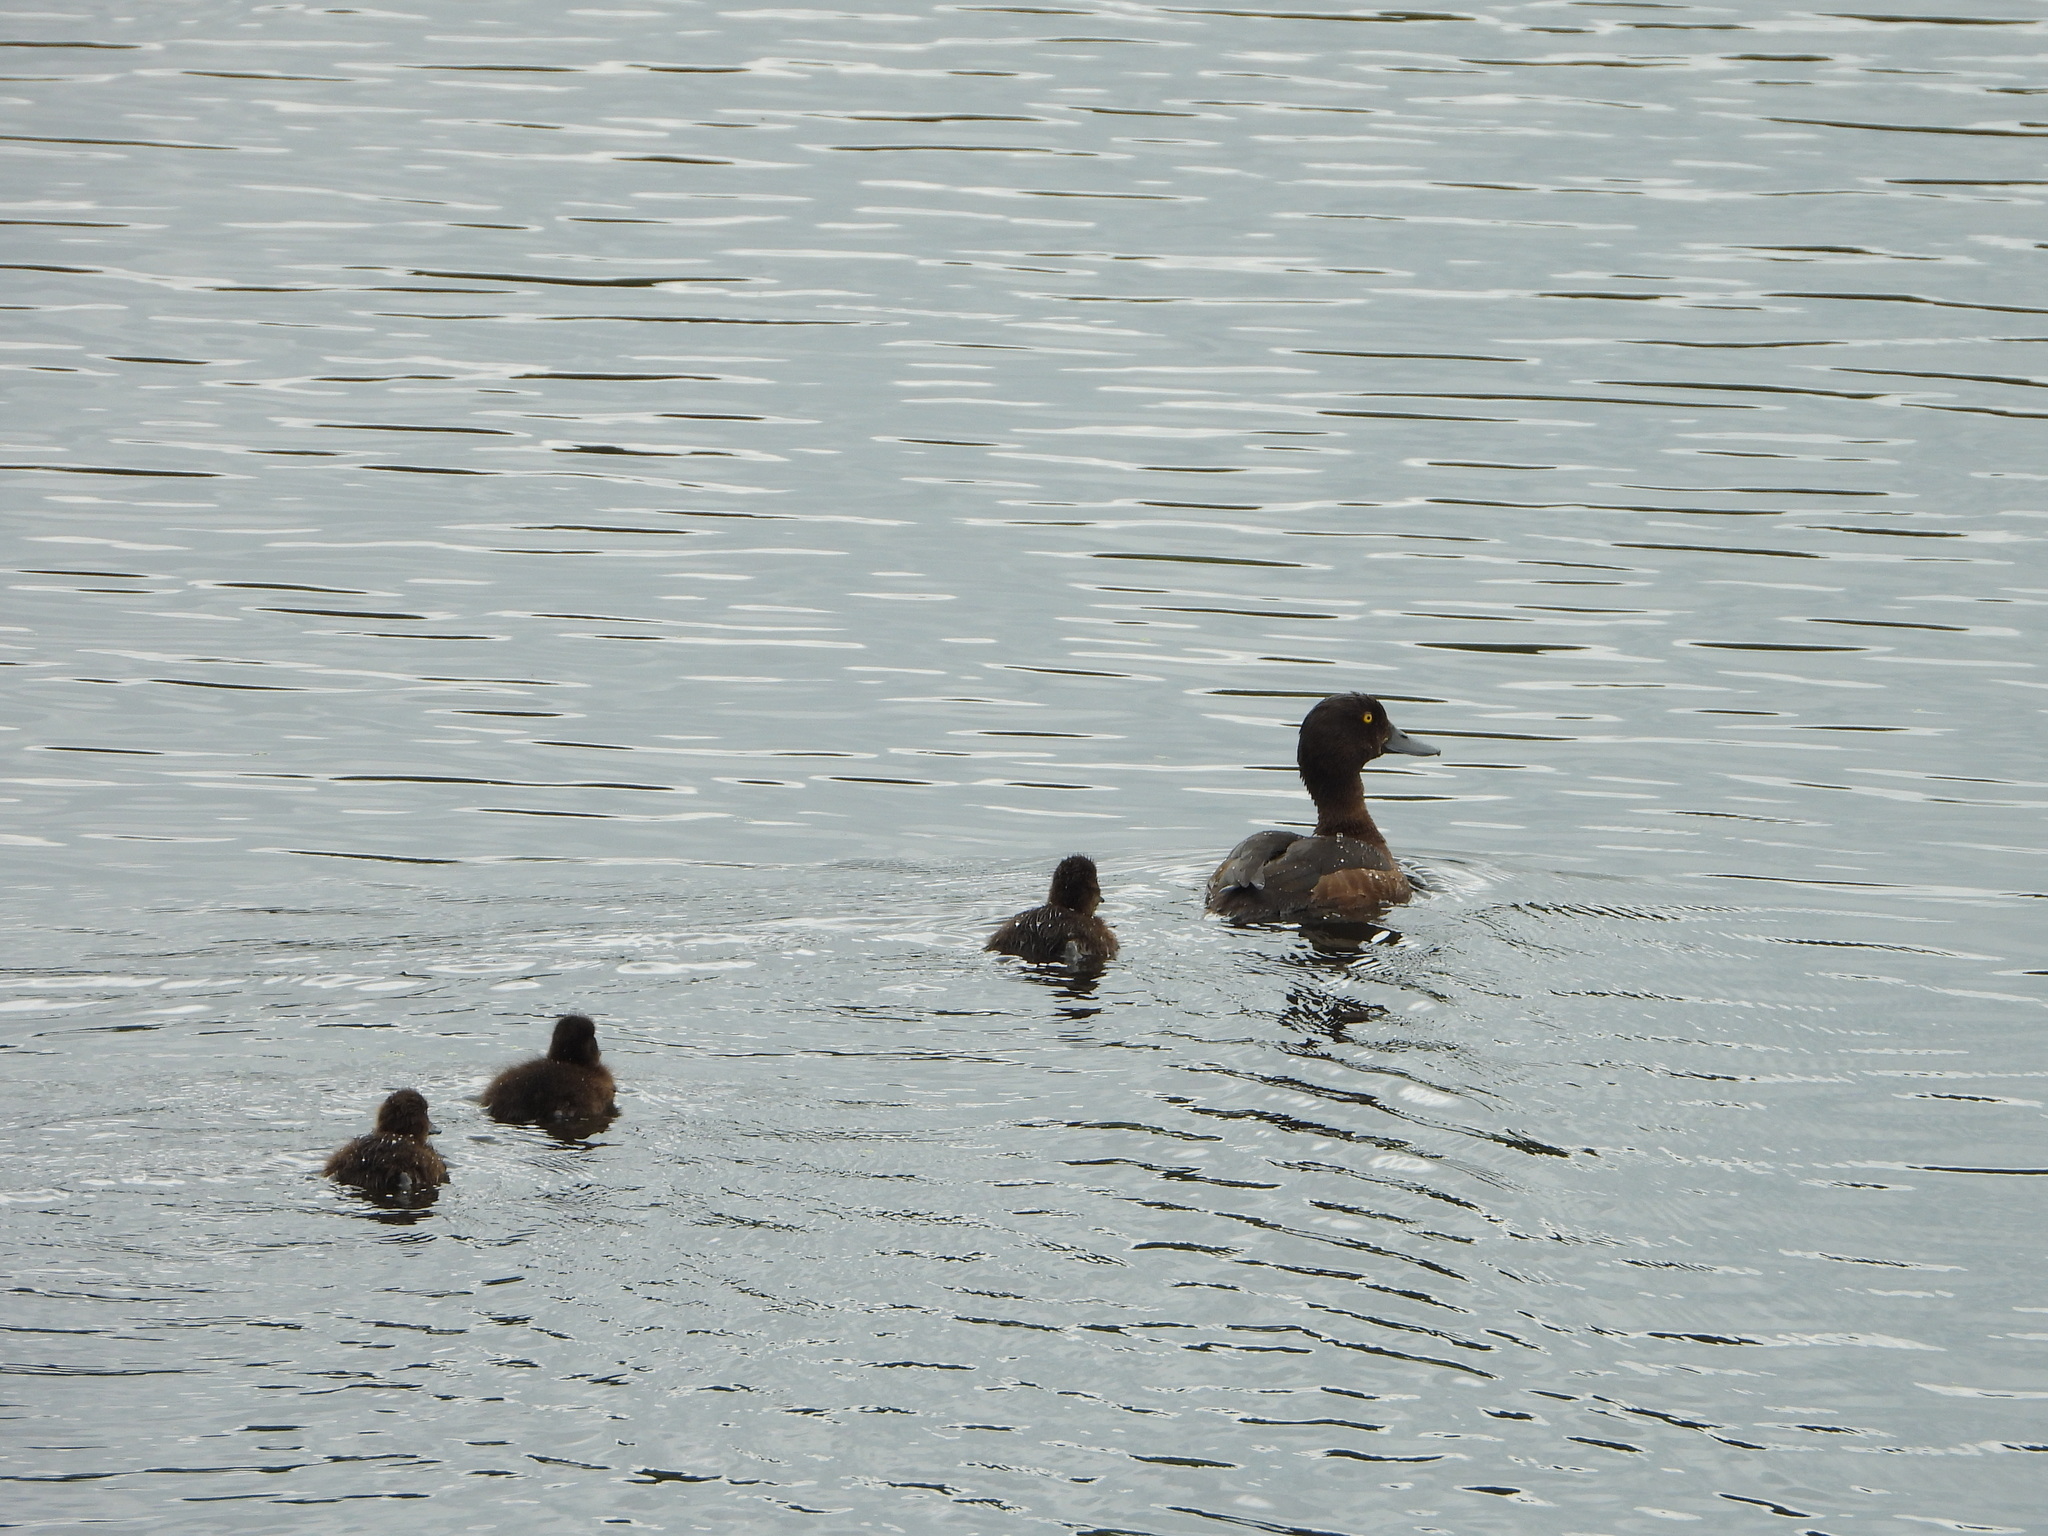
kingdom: Animalia
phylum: Chordata
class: Aves
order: Anseriformes
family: Anatidae
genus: Aythya
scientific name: Aythya fuligula
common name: Tufted duck
